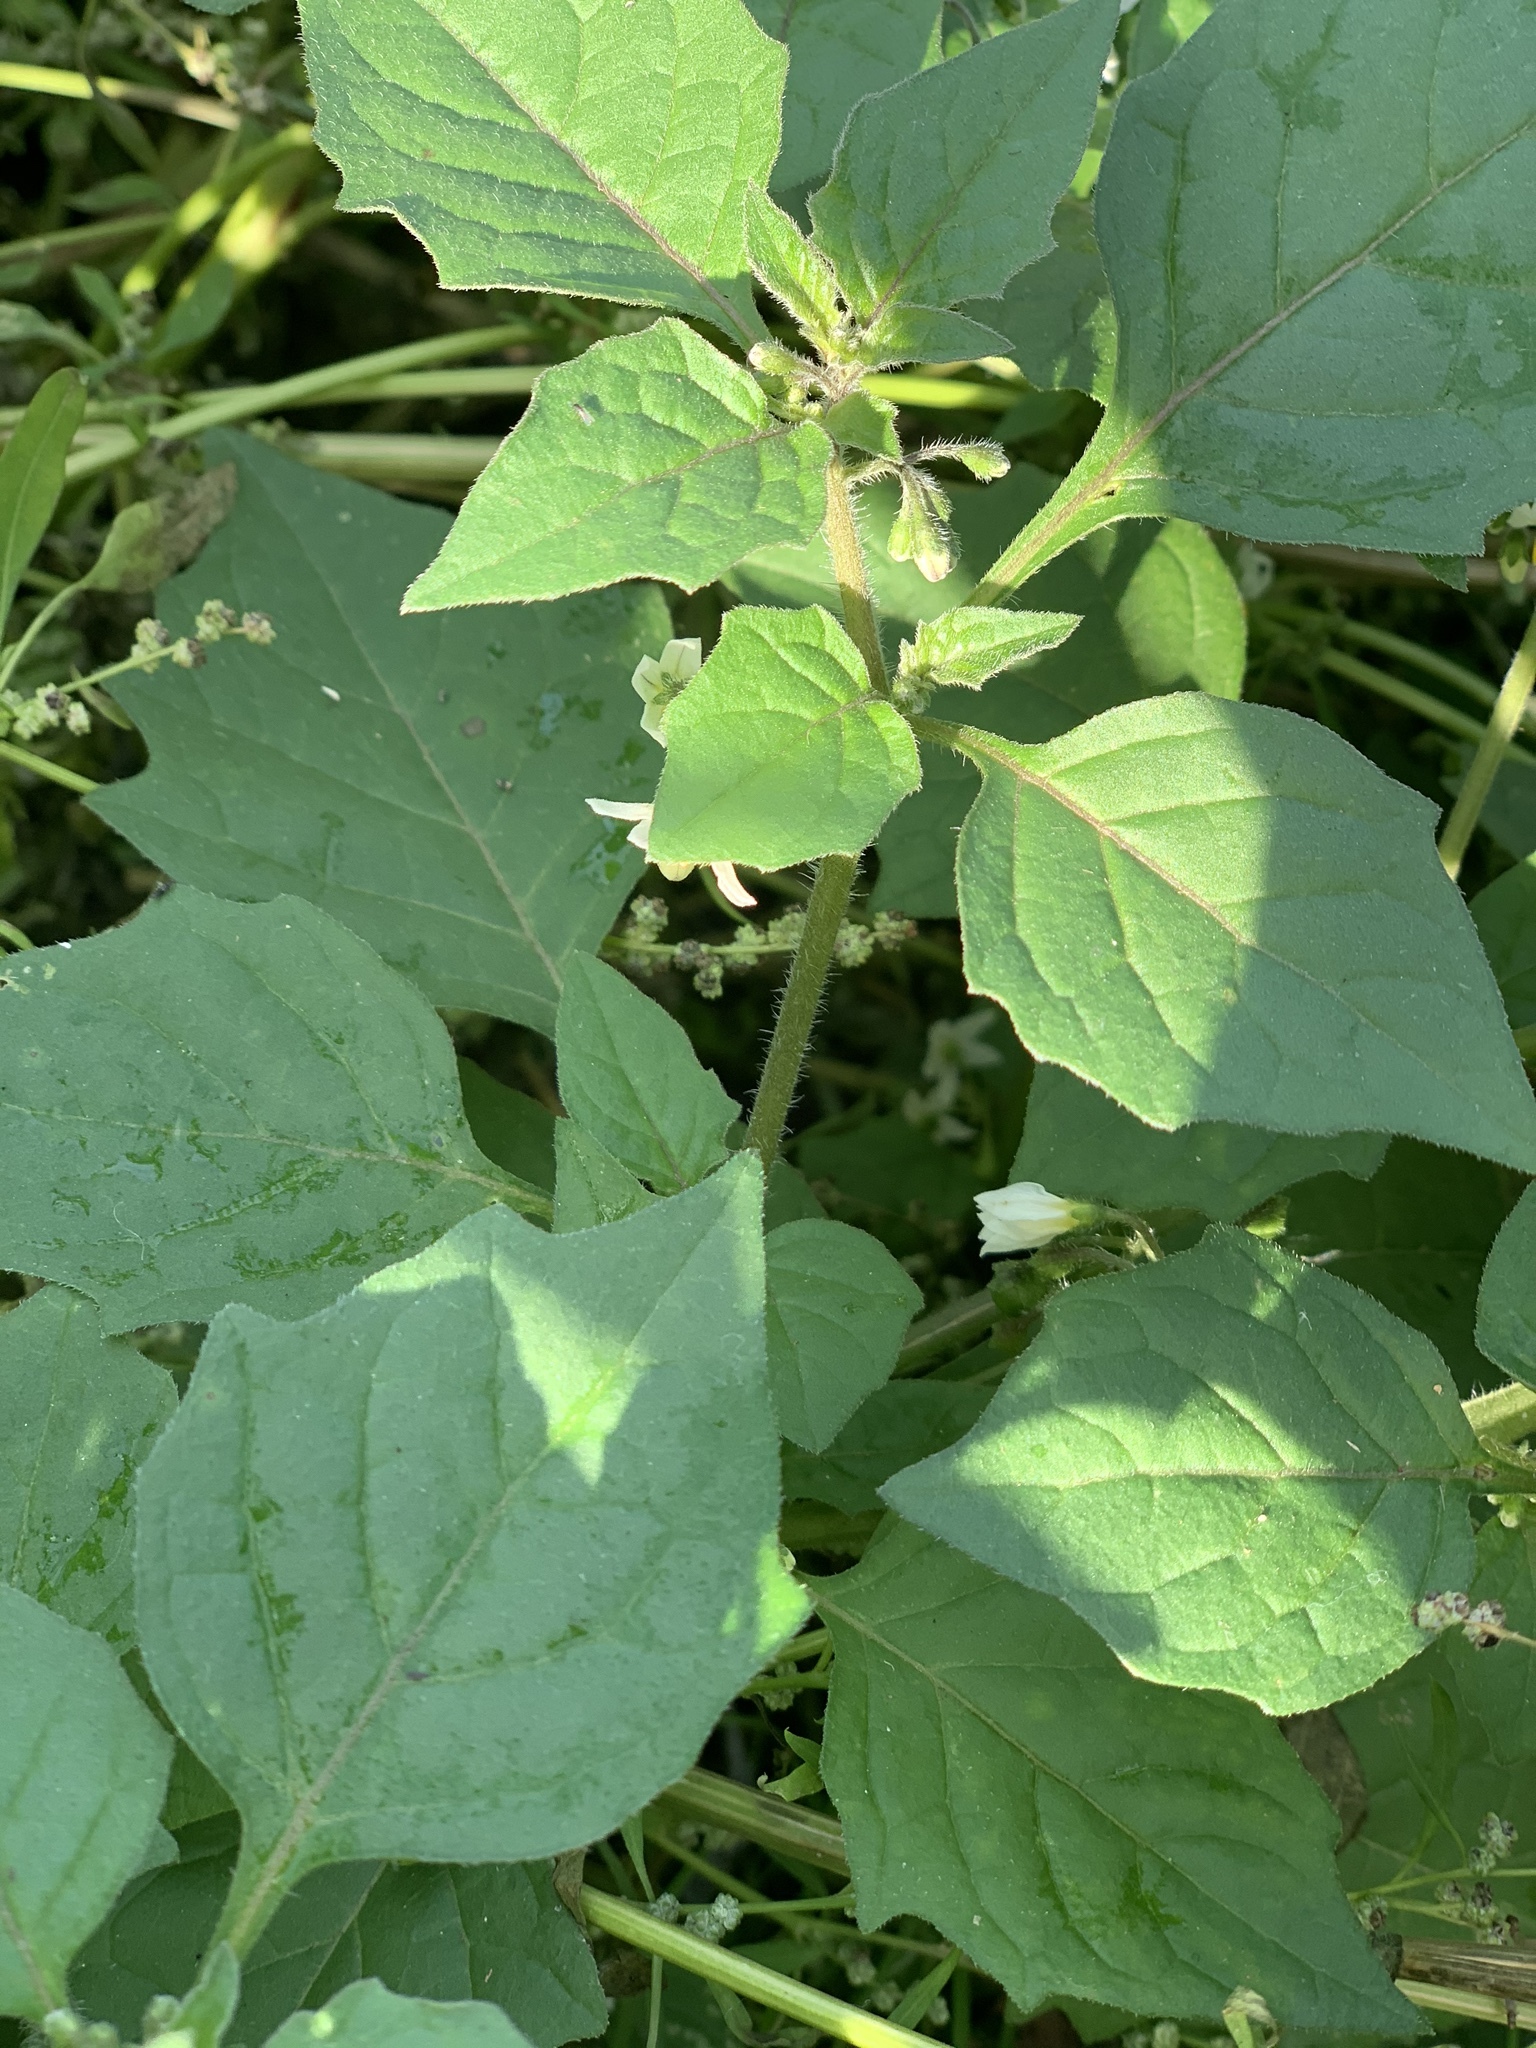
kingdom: Plantae
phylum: Tracheophyta
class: Magnoliopsida
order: Solanales
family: Solanaceae
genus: Solanum
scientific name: Solanum nigrum
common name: Black nightshade
